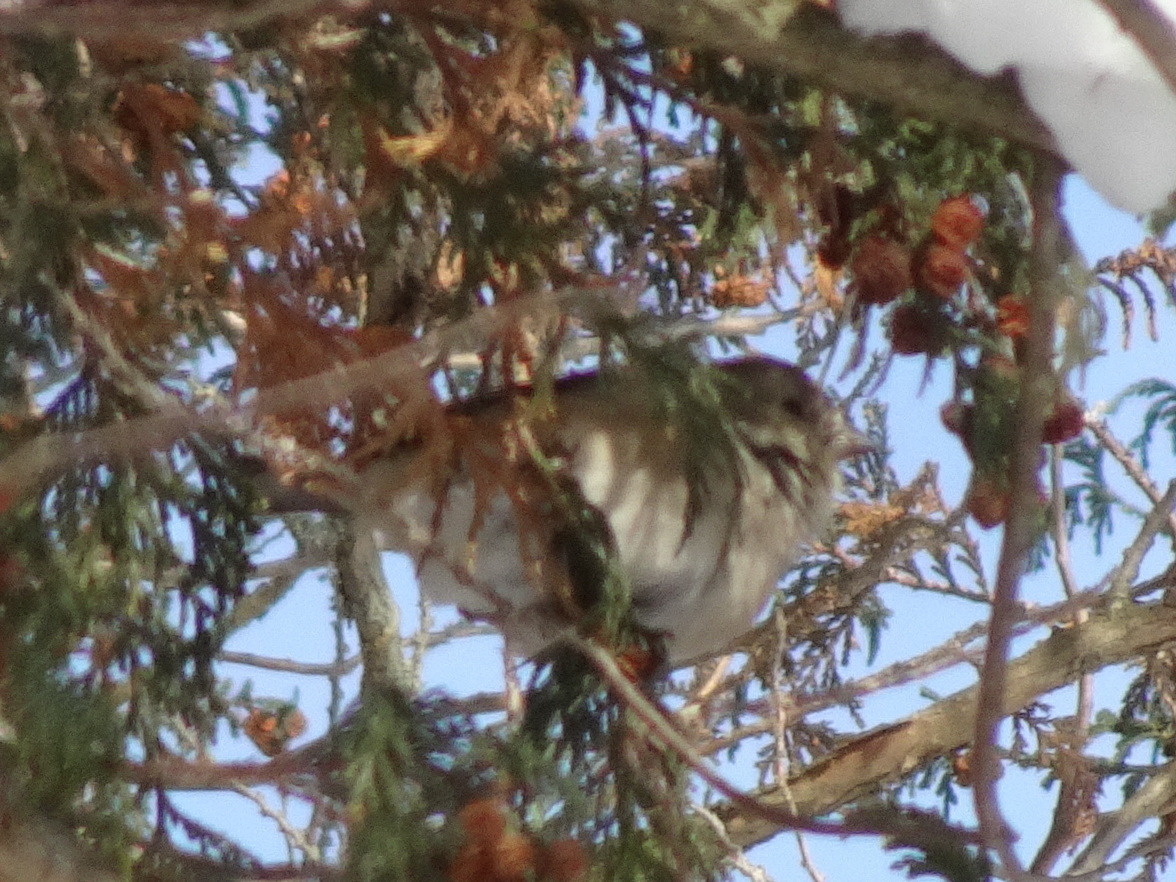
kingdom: Animalia
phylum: Chordata
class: Aves
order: Passeriformes
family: Fringillidae
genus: Spinus
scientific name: Spinus tristis
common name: American goldfinch
